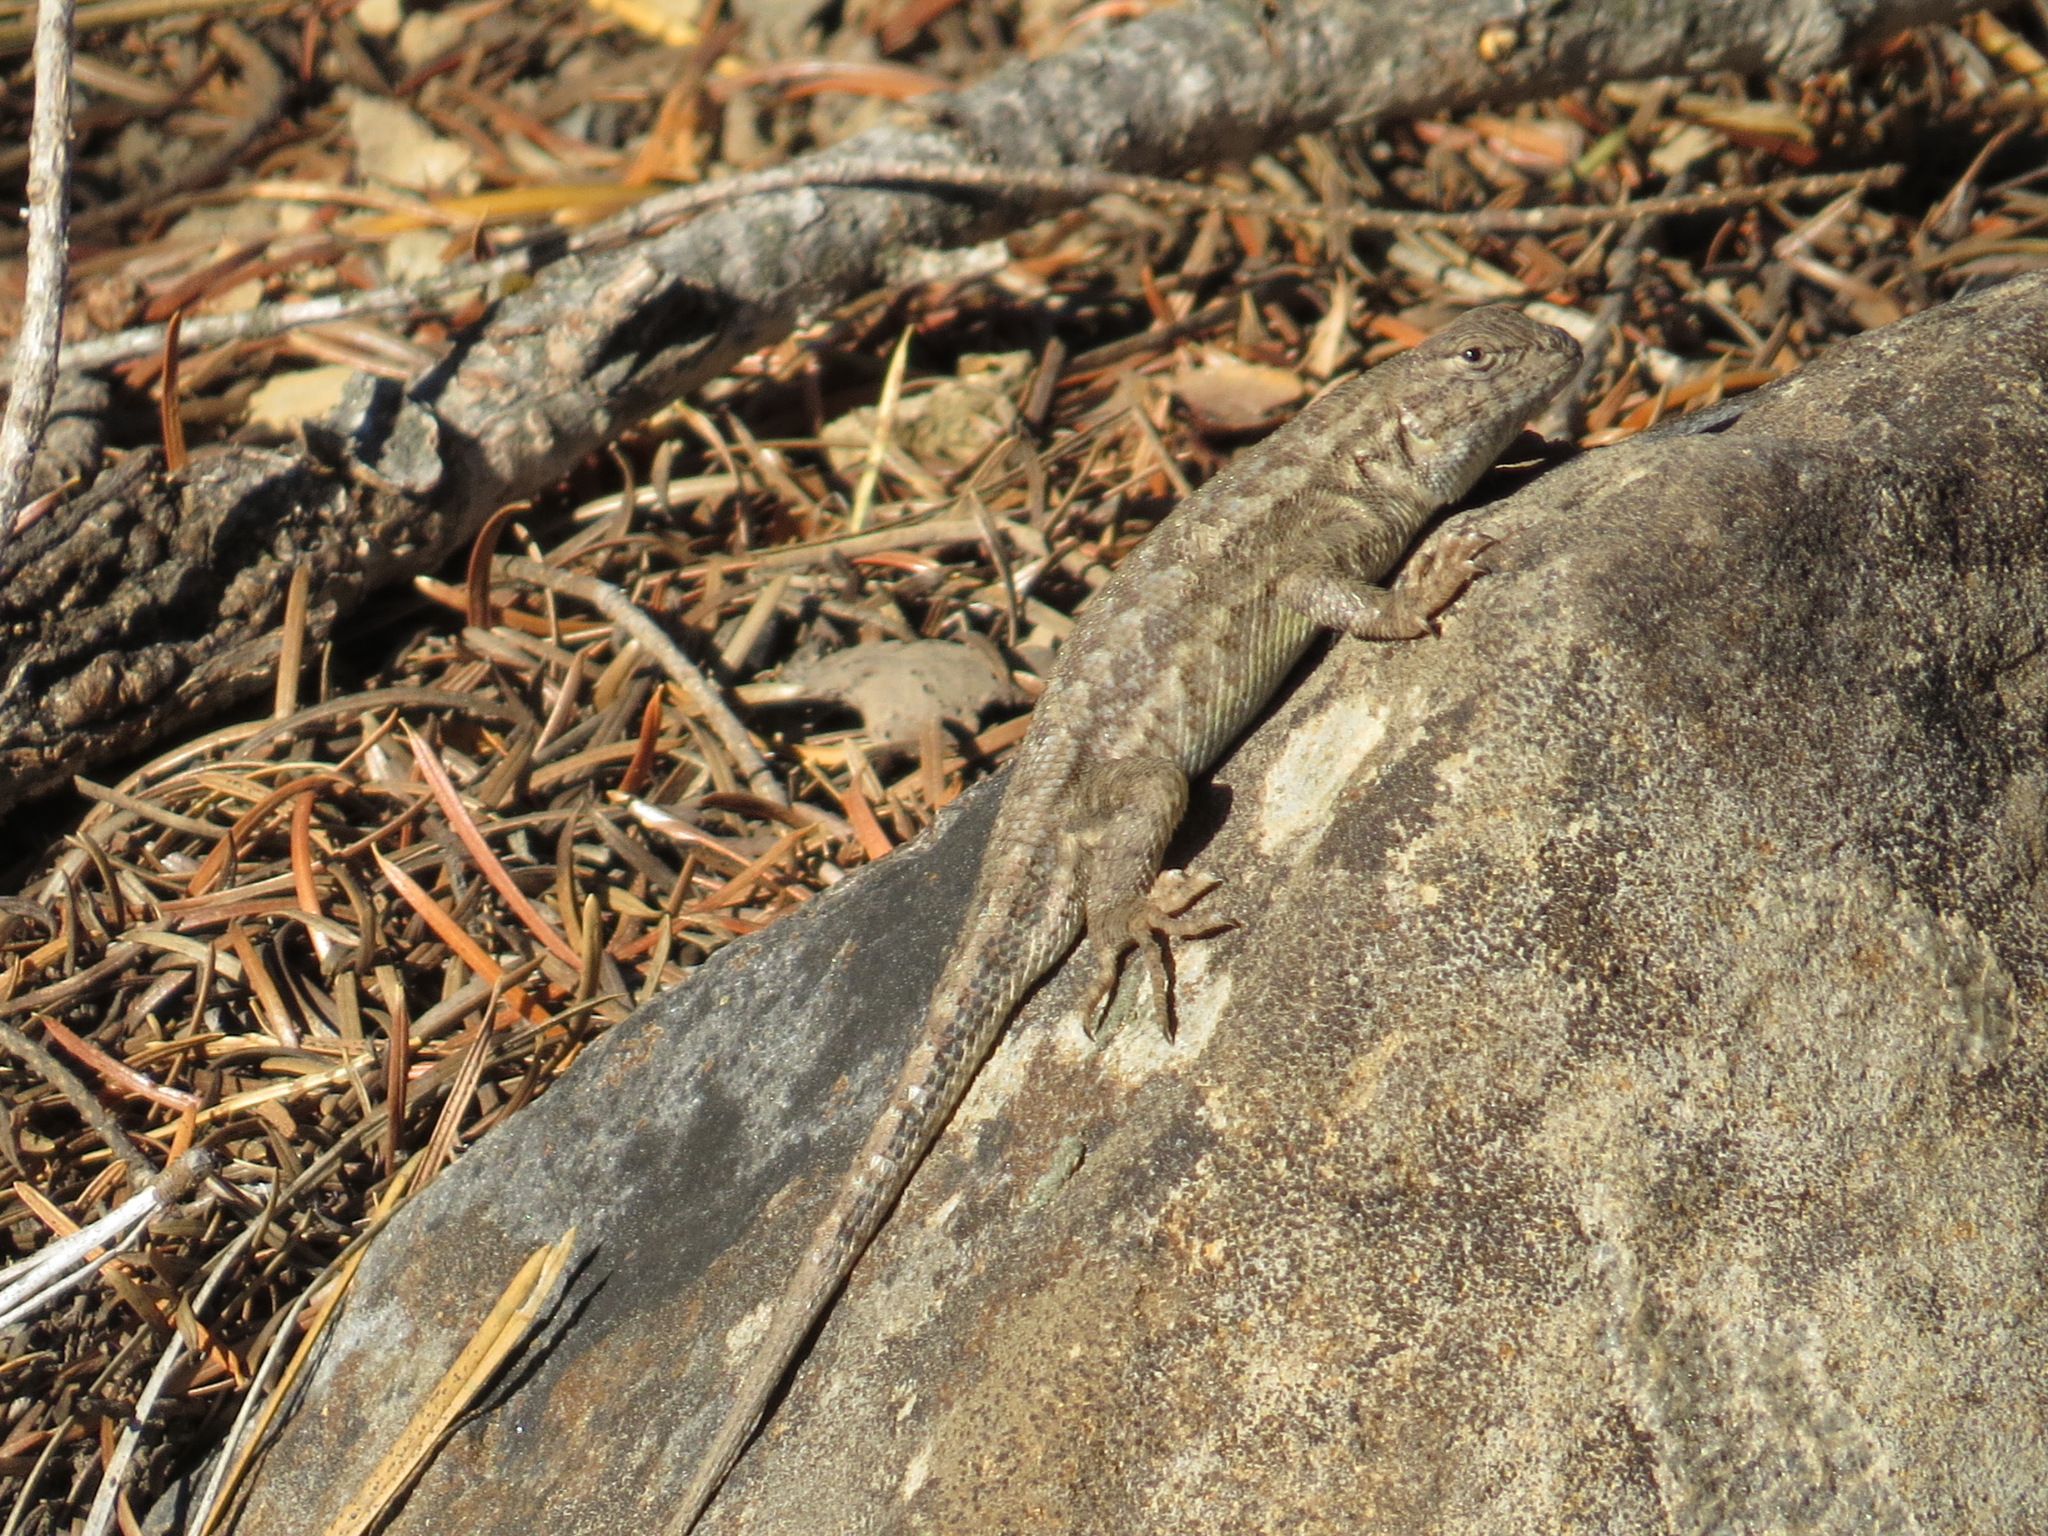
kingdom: Animalia
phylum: Chordata
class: Squamata
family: Phrynosomatidae
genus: Sceloporus
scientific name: Sceloporus graciosus
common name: Sagebrush lizard
